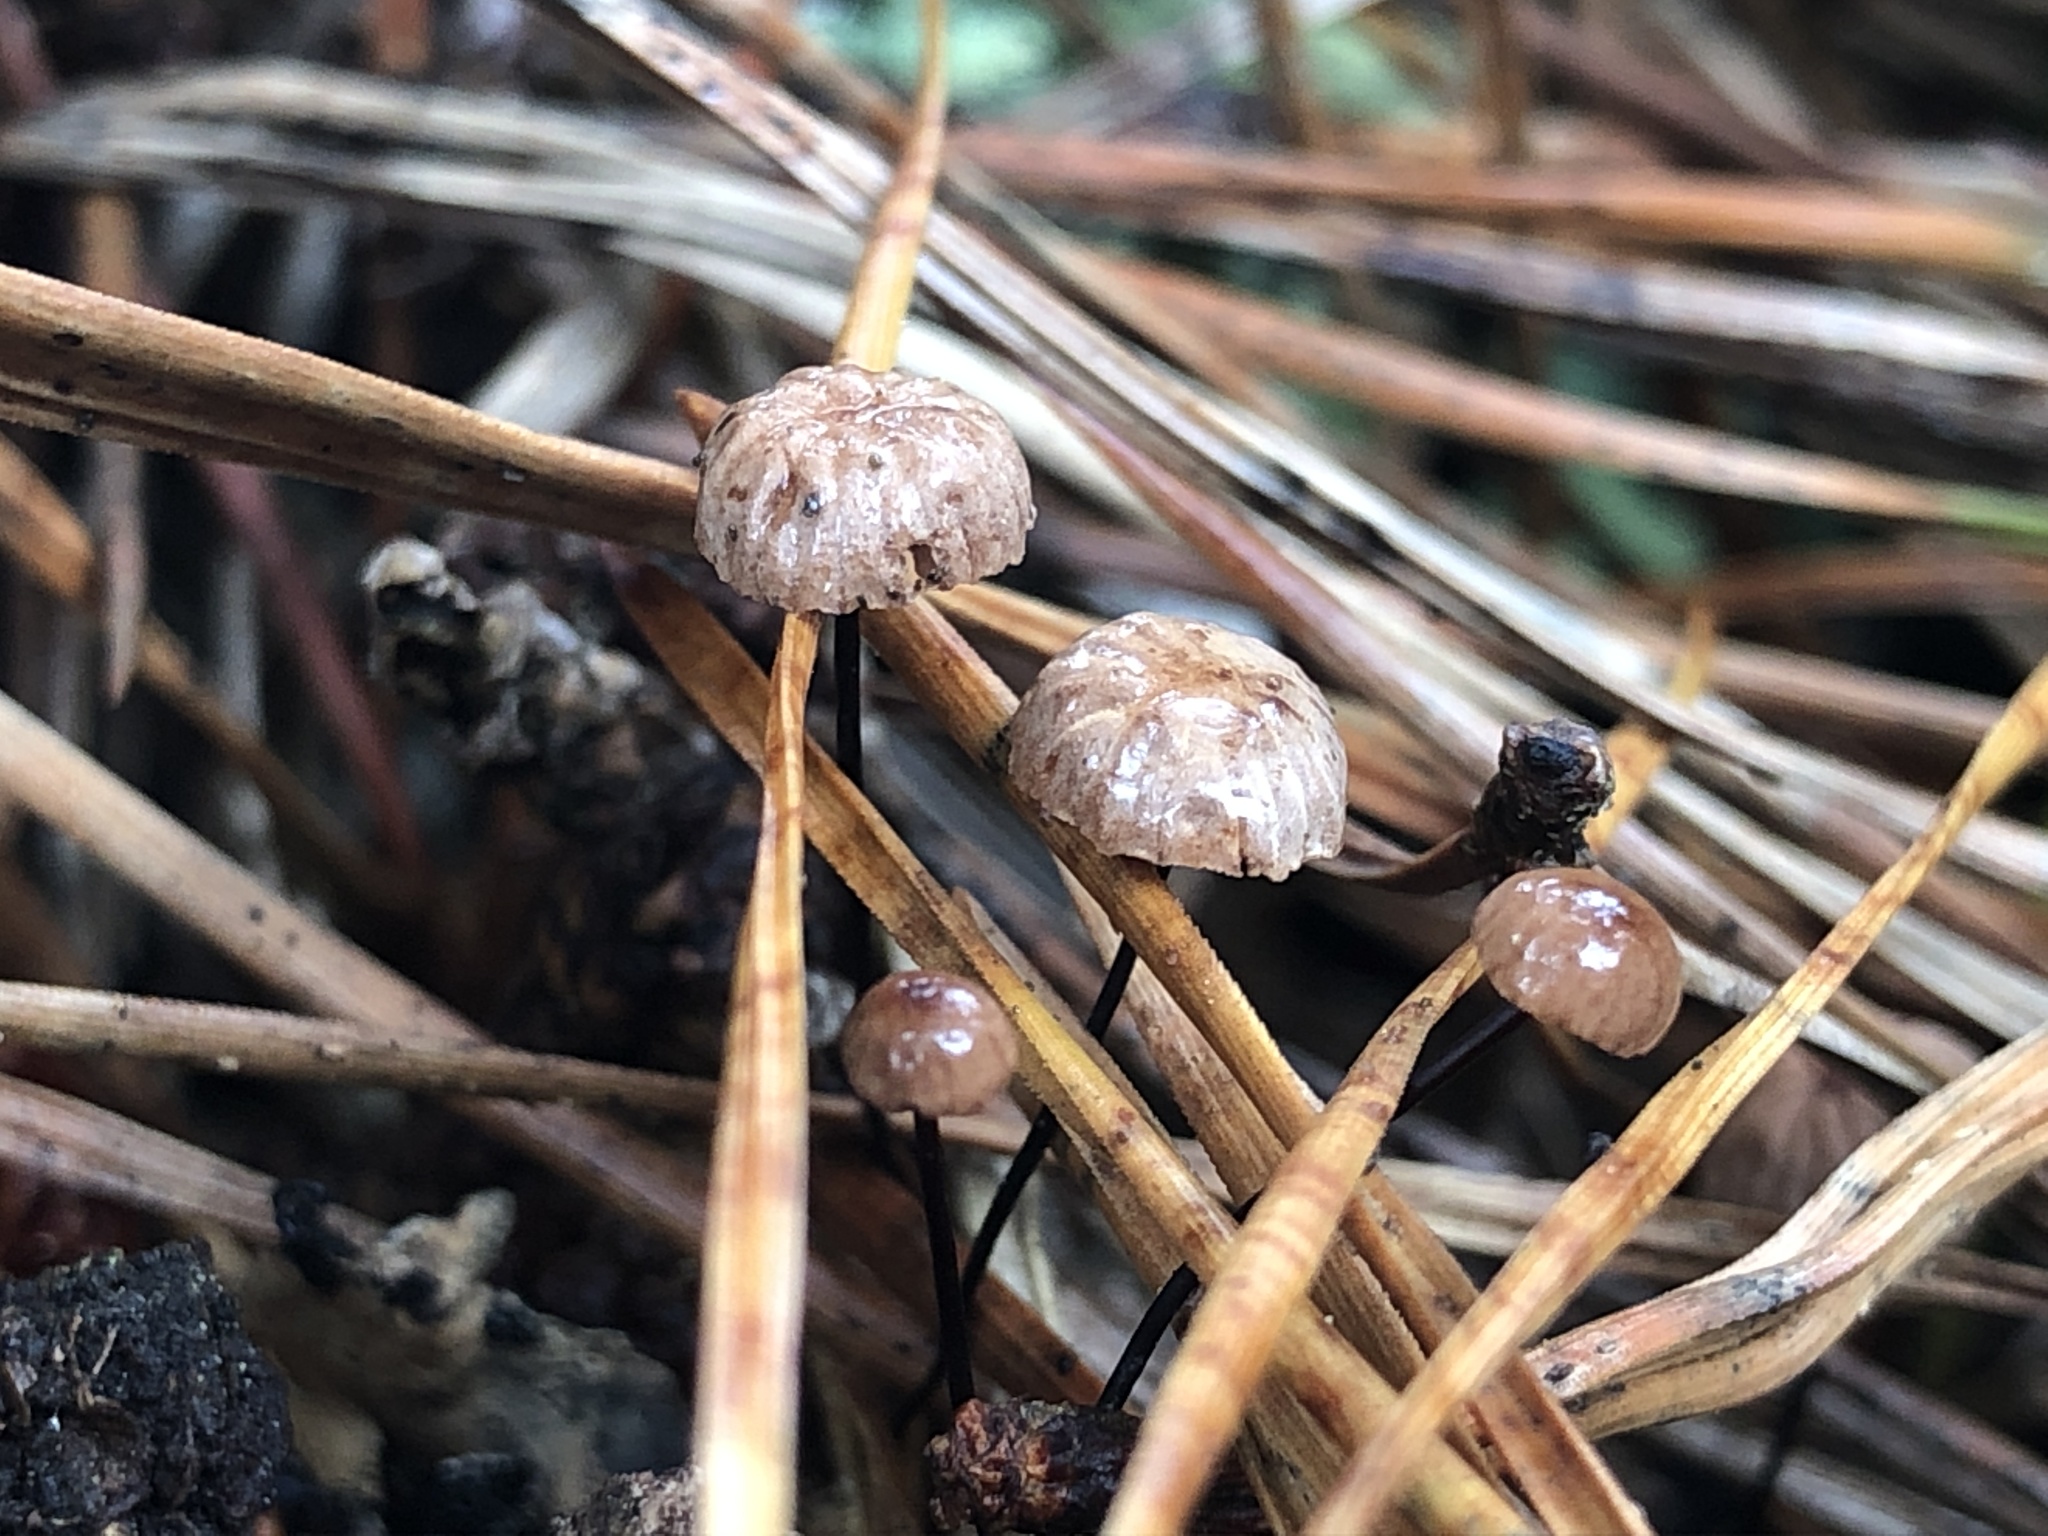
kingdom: Fungi
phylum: Basidiomycota
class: Agaricomycetes
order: Agaricales
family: Omphalotaceae
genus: Gymnopus
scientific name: Gymnopus androsaceus
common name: Horse-hair fungus
